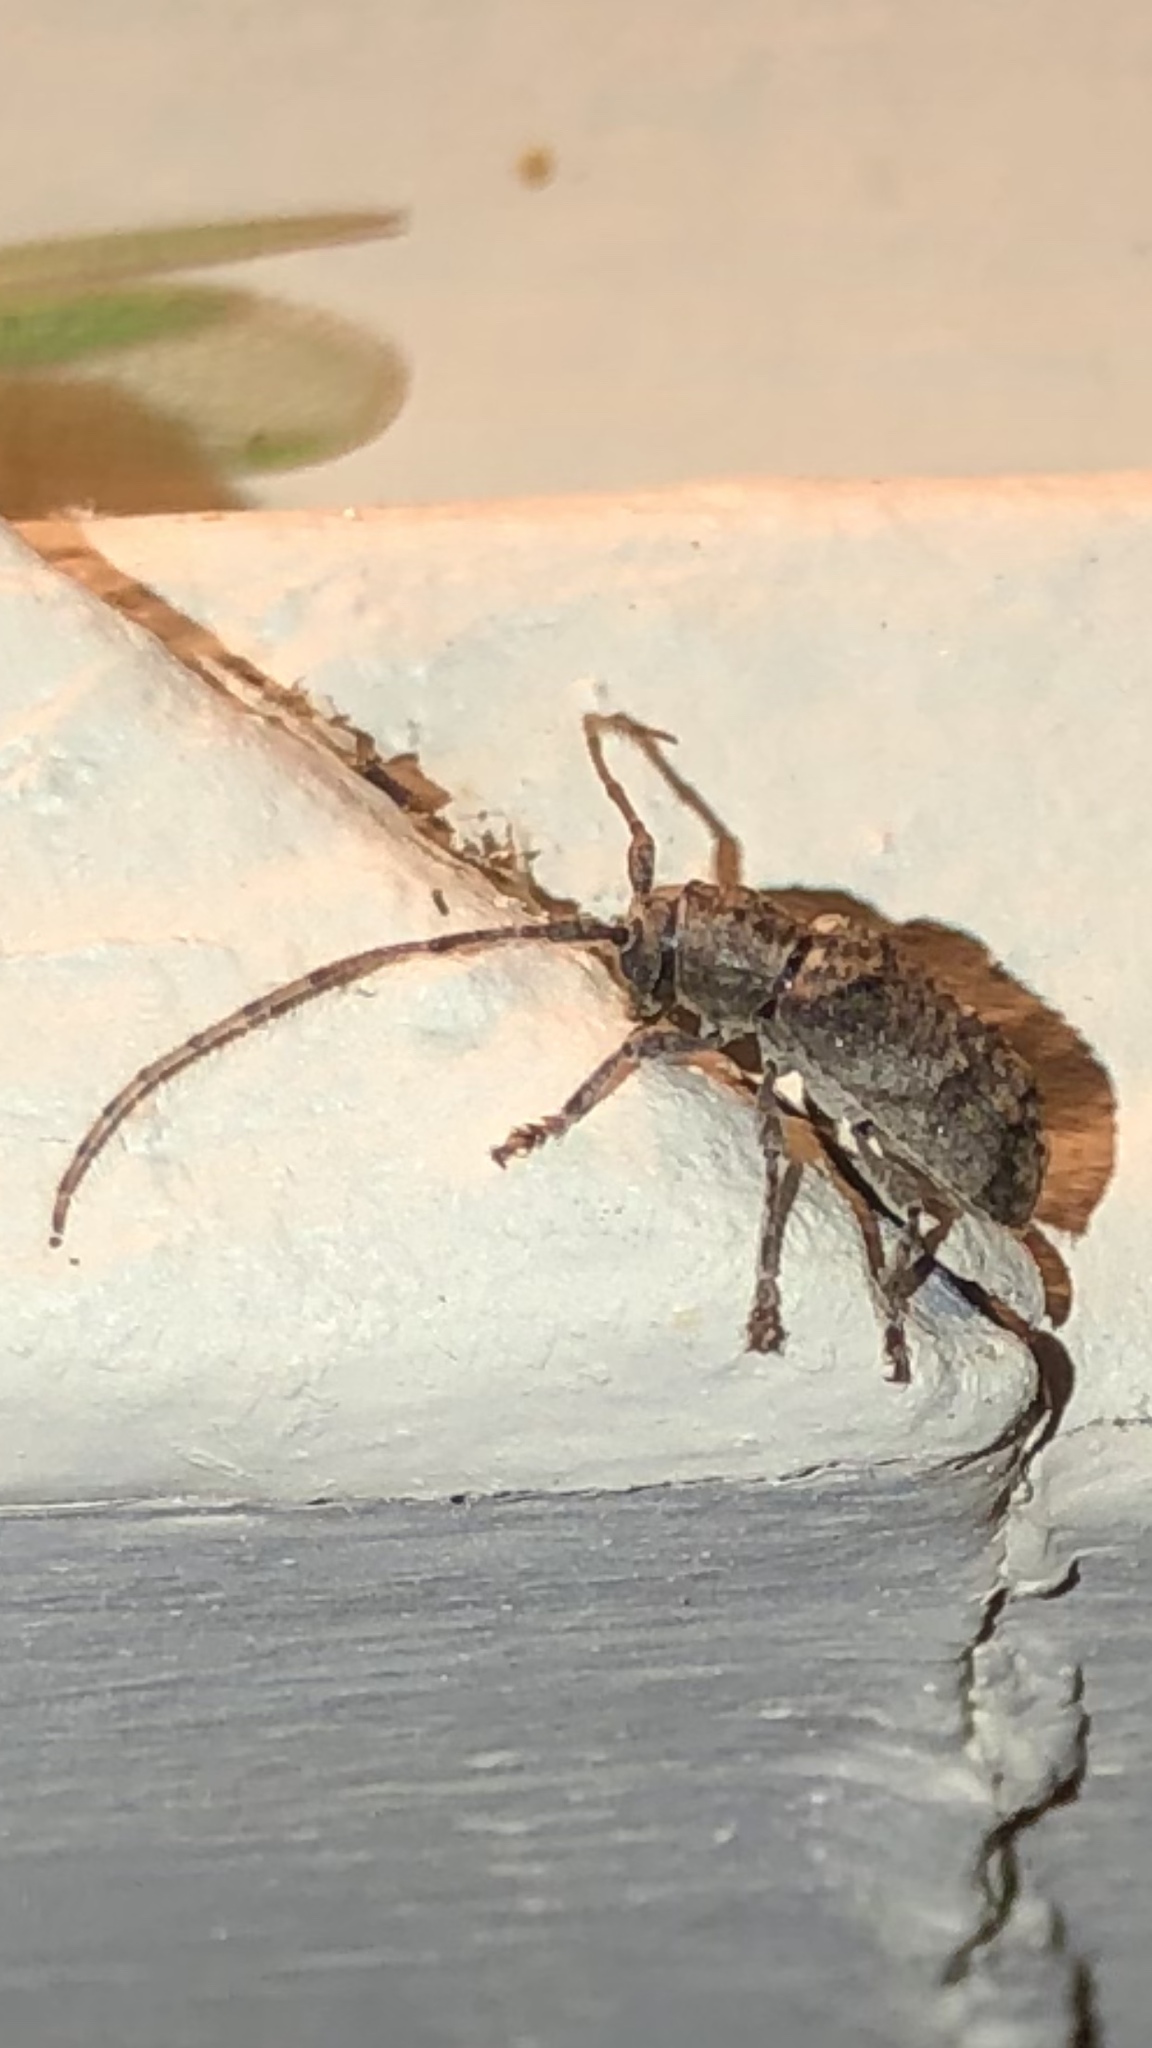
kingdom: Animalia
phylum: Arthropoda
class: Insecta
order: Coleoptera
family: Cerambycidae
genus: Ecyrus
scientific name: Ecyrus dasycerus
